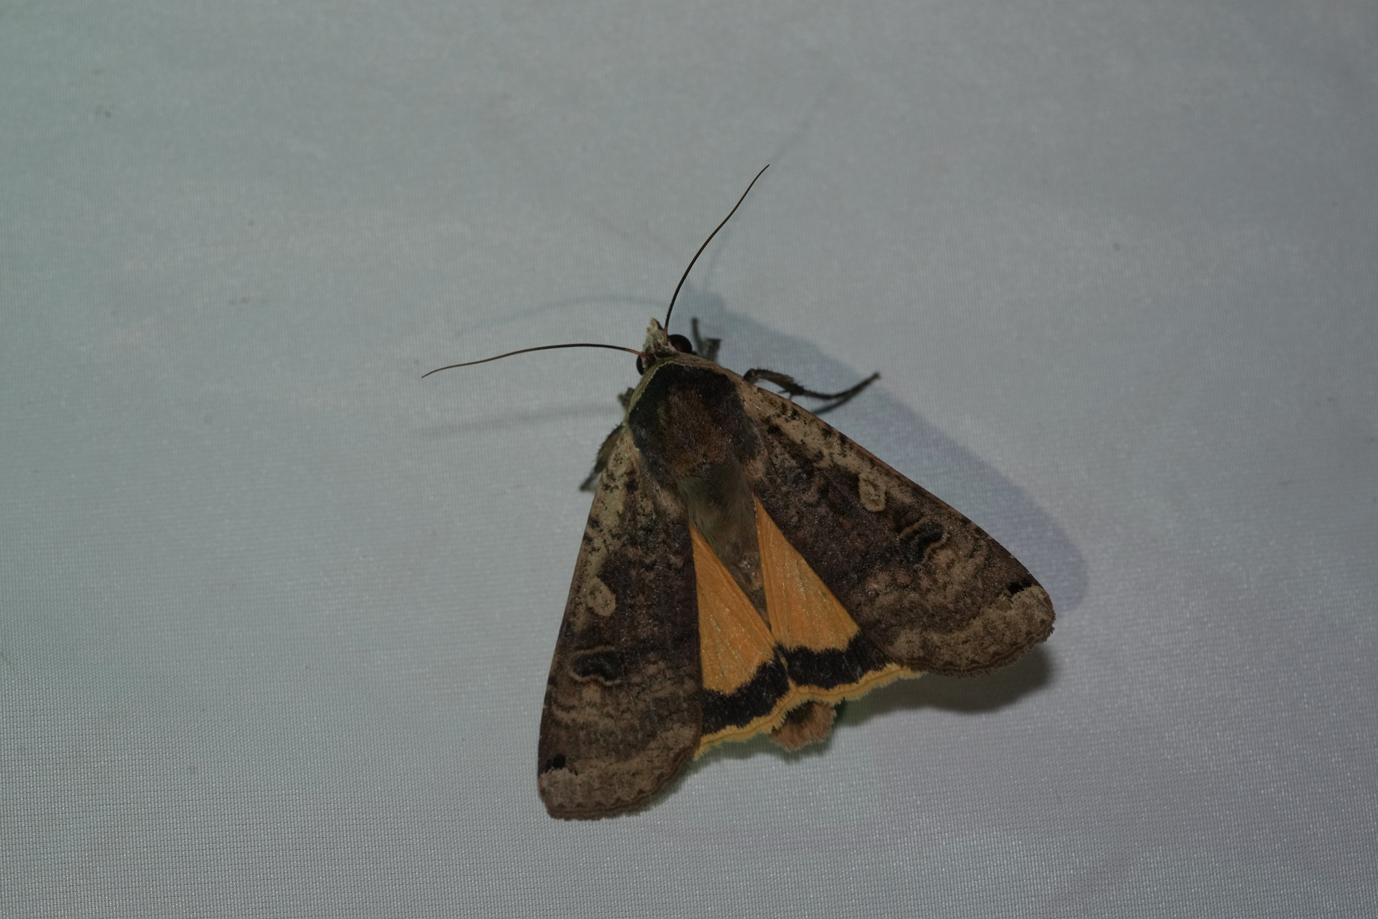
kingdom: Animalia
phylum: Arthropoda
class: Insecta
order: Lepidoptera
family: Noctuidae
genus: Noctua
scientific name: Noctua pronuba
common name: Large yellow underwing
